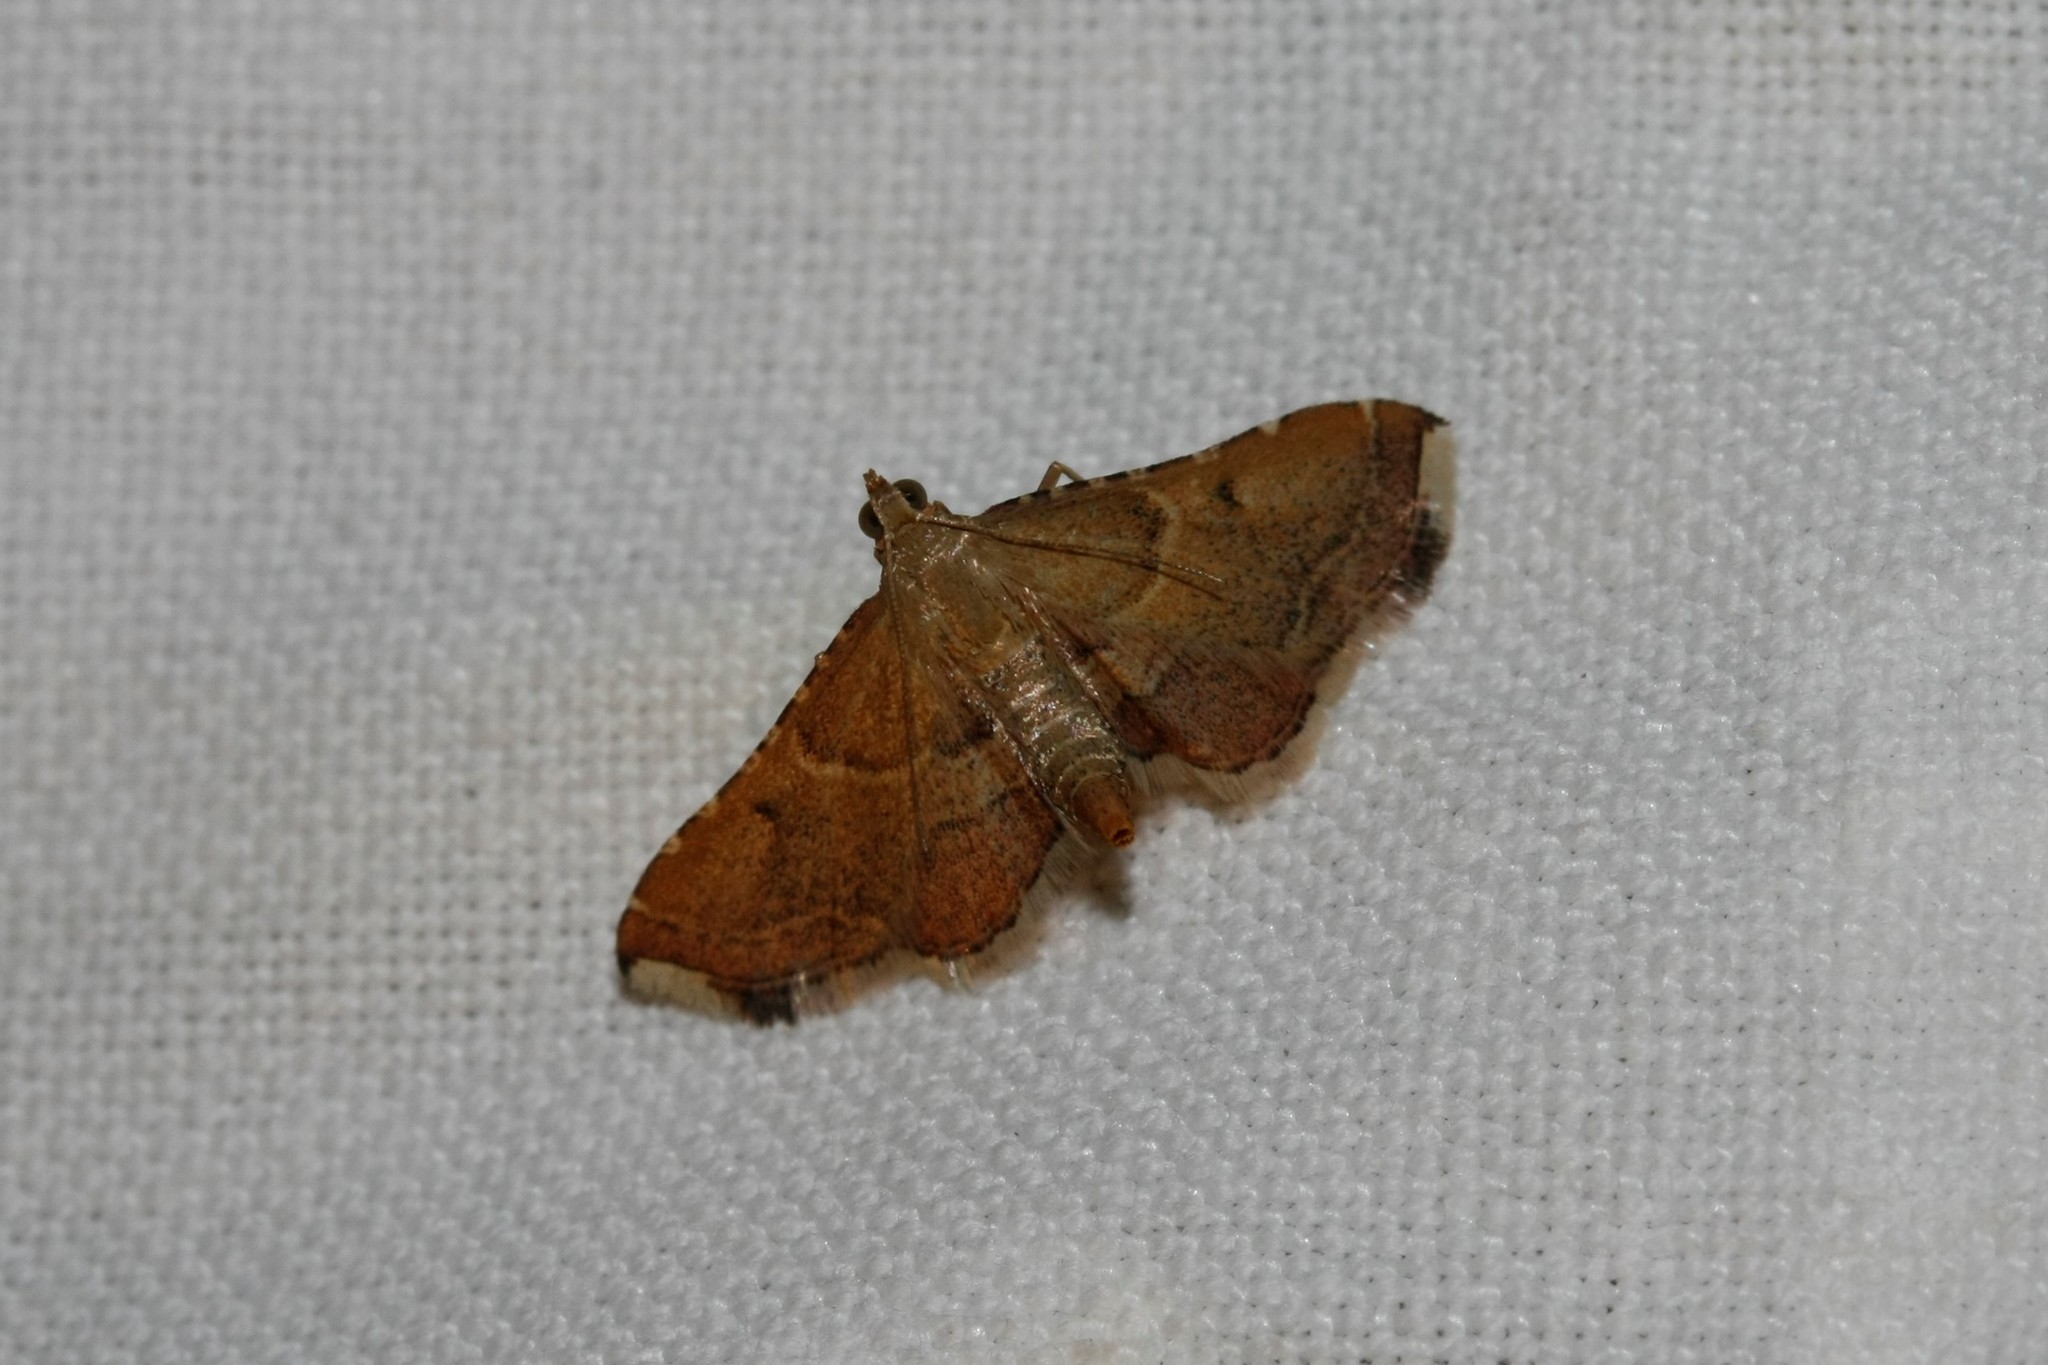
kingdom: Animalia
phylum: Arthropoda
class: Insecta
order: Lepidoptera
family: Pyralidae
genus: Endotricha
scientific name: Endotricha flammealis
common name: Rosy tabby
